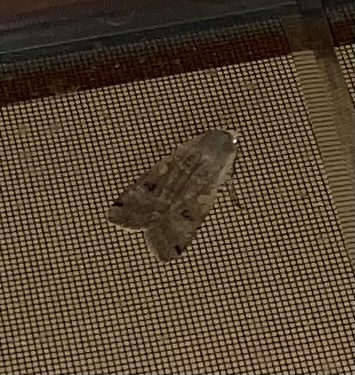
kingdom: Animalia
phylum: Arthropoda
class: Insecta
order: Lepidoptera
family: Noctuidae
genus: Noctua
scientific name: Noctua pronuba
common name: Large yellow underwing
